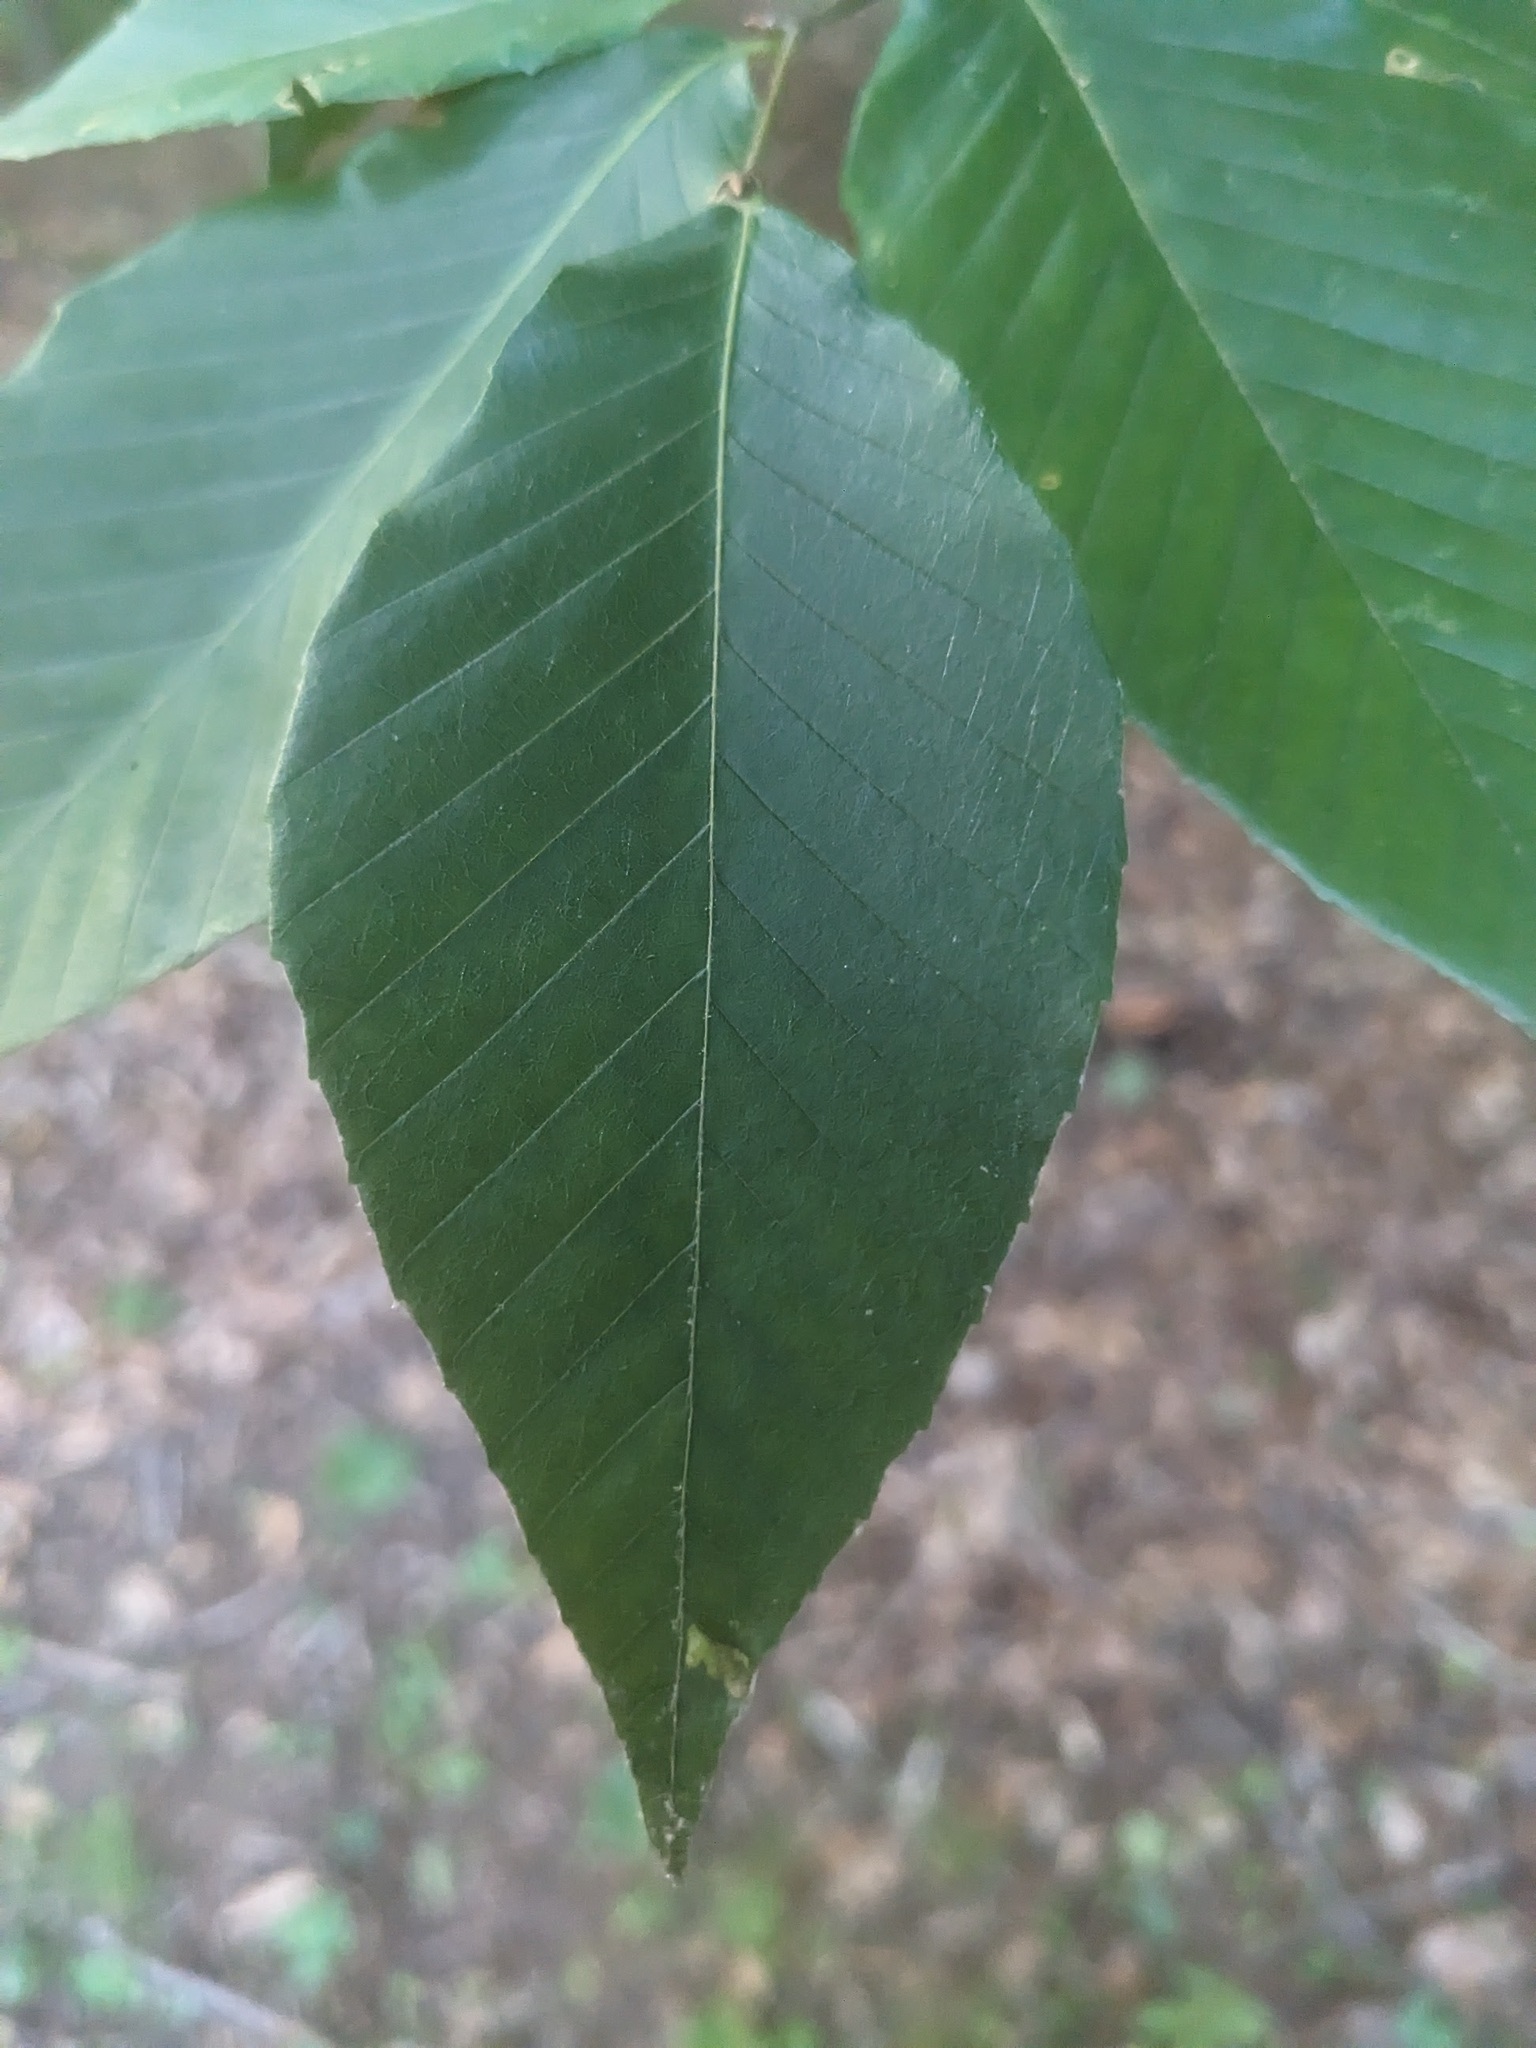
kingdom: Plantae
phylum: Tracheophyta
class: Magnoliopsida
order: Fagales
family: Fagaceae
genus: Fagus
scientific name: Fagus grandifolia
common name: American beech
